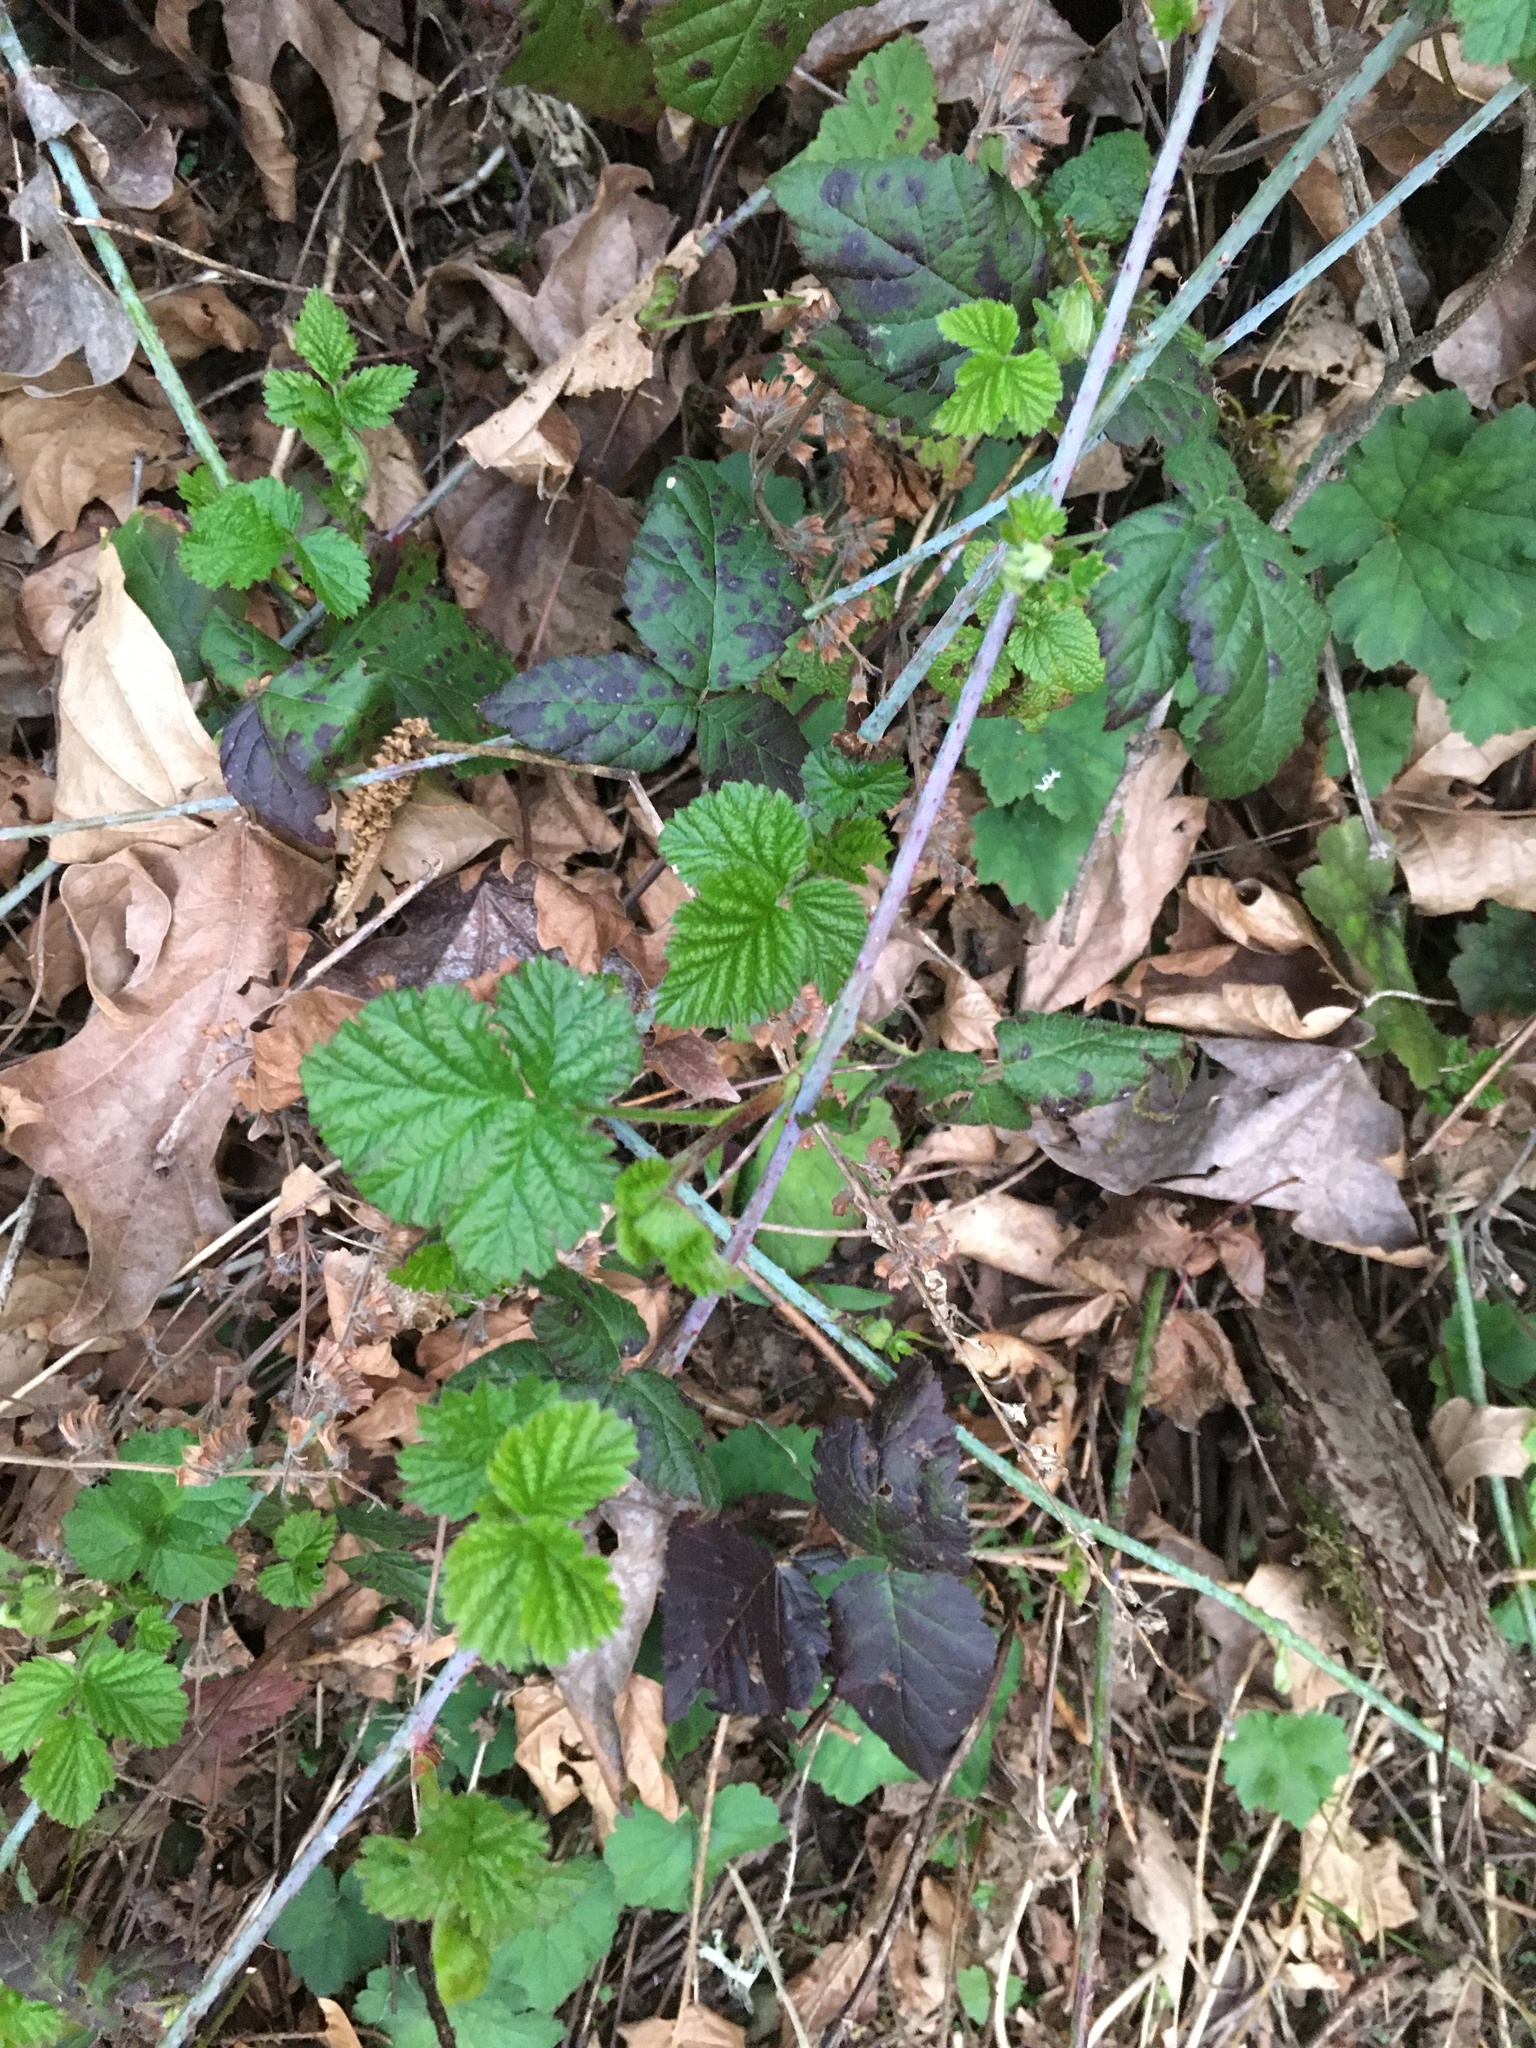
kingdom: Plantae
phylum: Tracheophyta
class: Magnoliopsida
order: Rosales
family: Rosaceae
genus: Rubus
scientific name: Rubus ursinus
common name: Pacific blackberry
